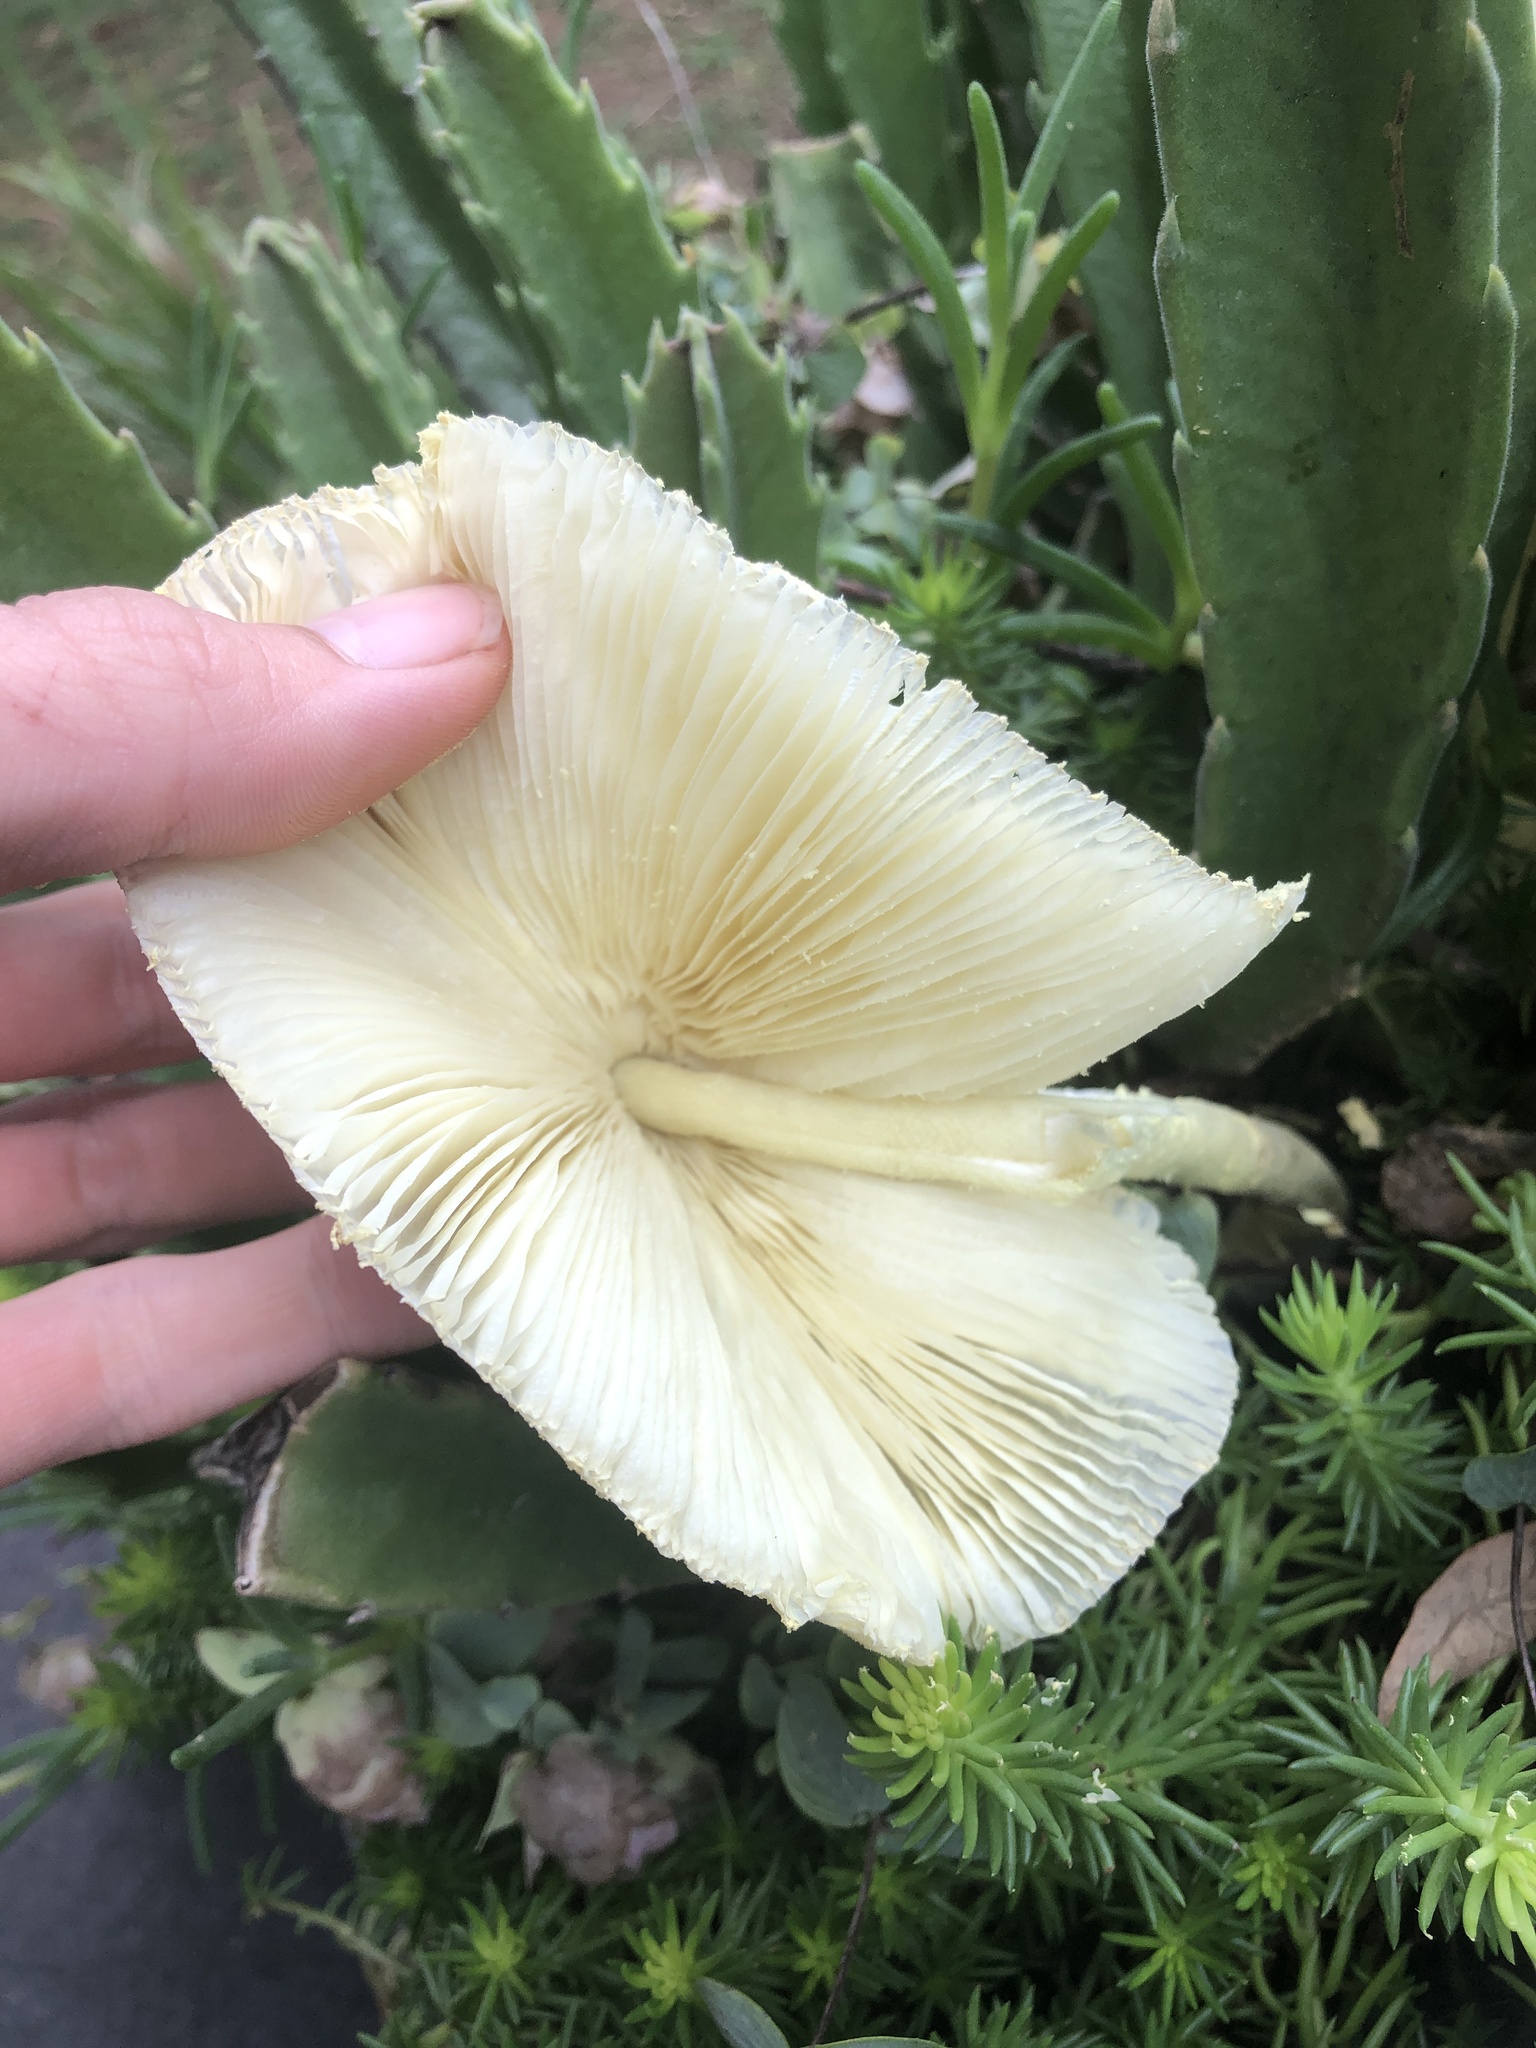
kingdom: Fungi
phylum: Basidiomycota
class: Agaricomycetes
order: Agaricales
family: Agaricaceae
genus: Leucocoprinus
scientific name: Leucocoprinus birnbaumii
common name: Plantpot dapperling
